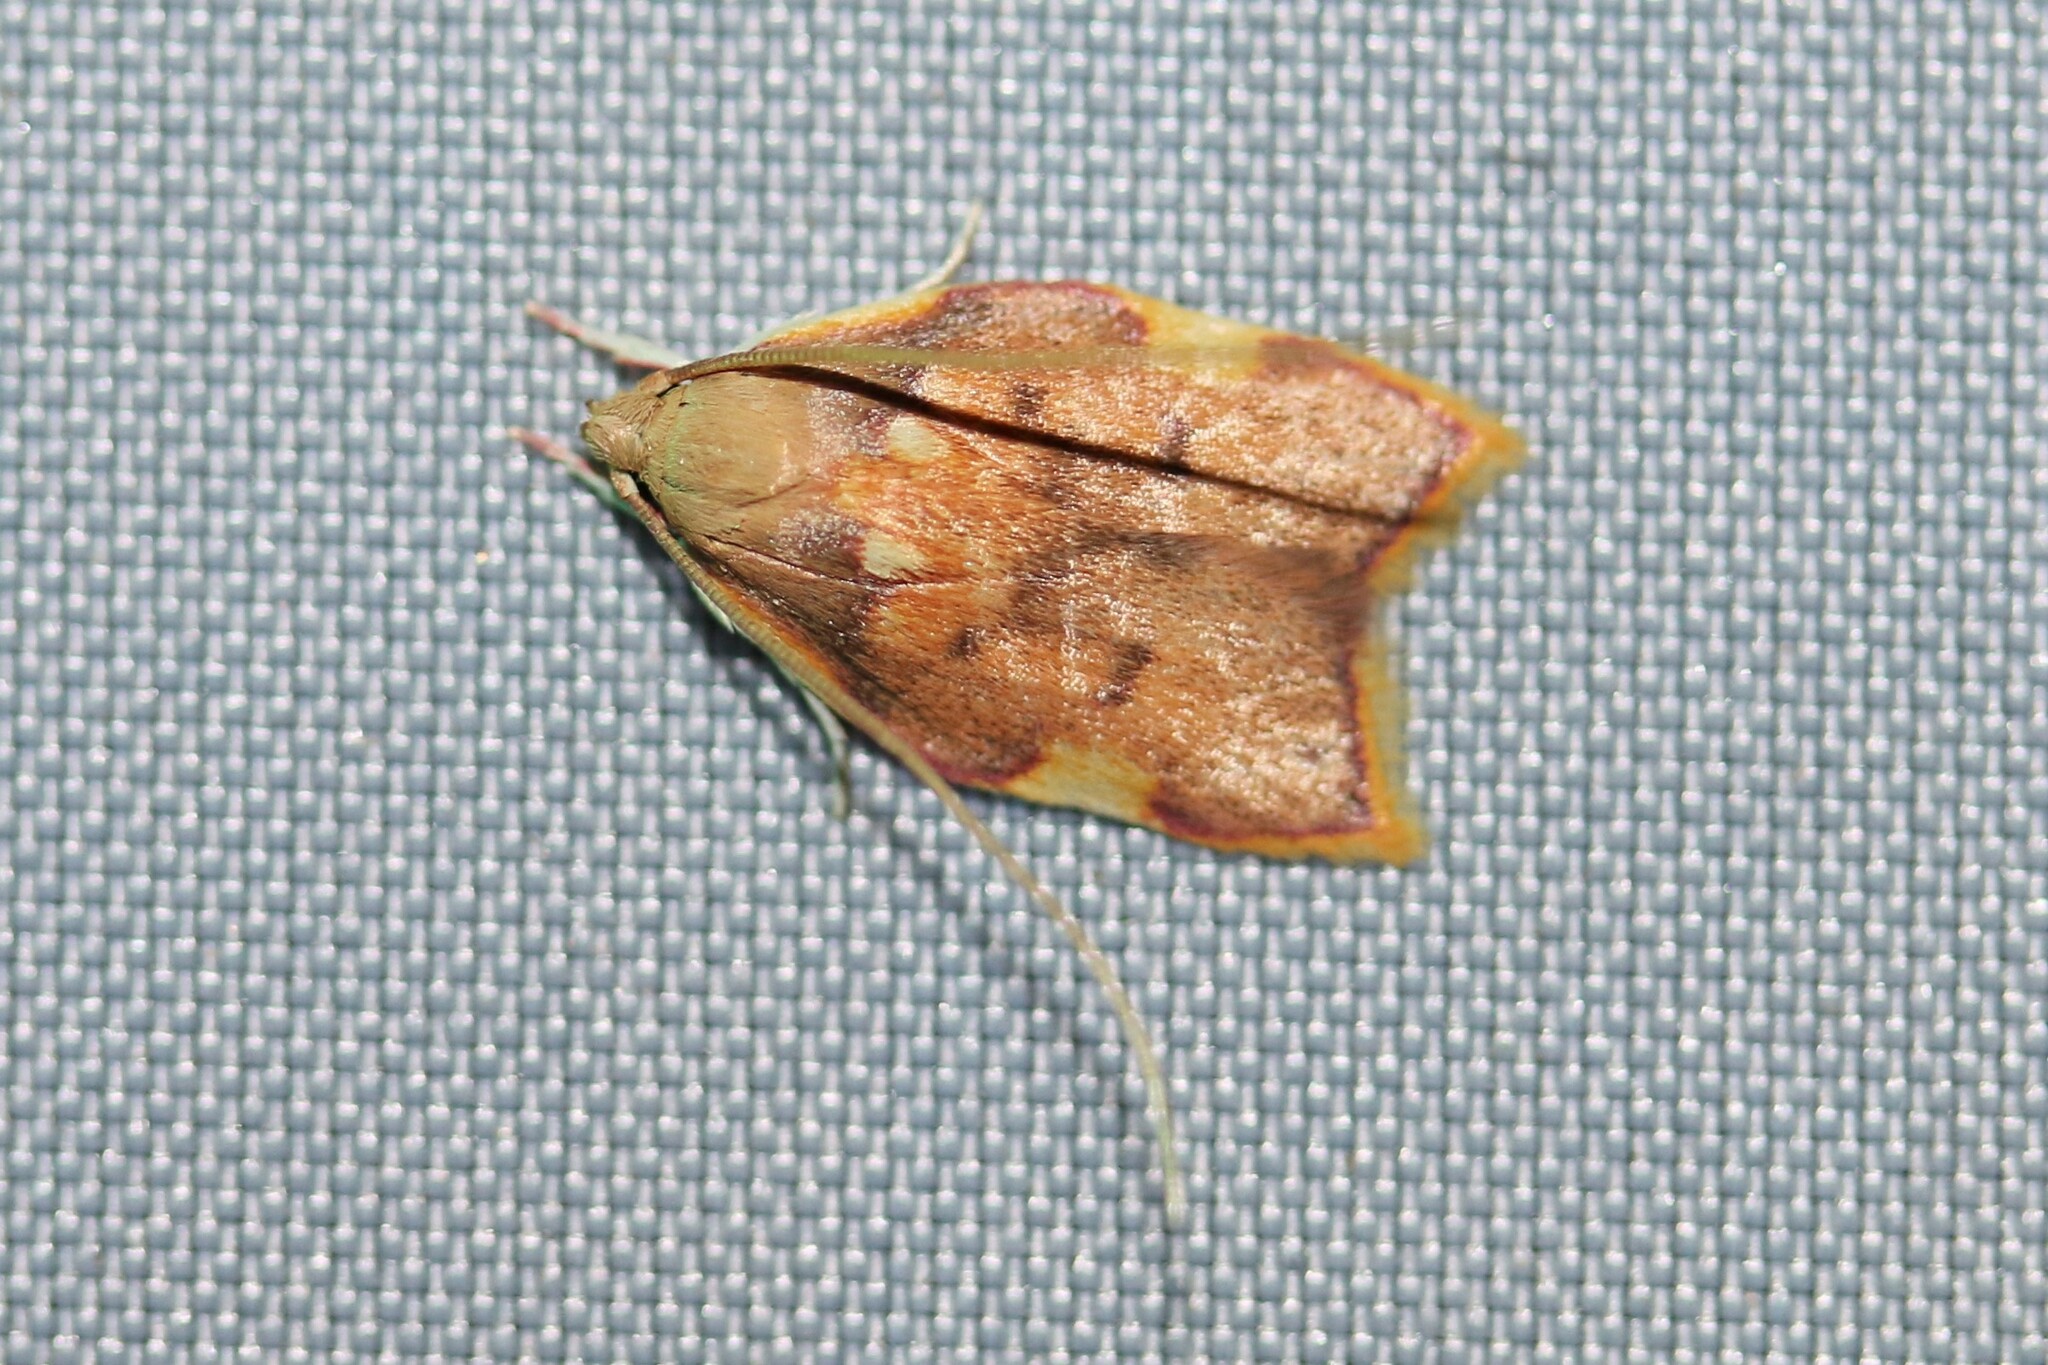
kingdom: Animalia
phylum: Arthropoda
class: Insecta
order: Lepidoptera
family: Peleopodidae
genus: Carcina
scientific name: Carcina quercana
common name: Moth
